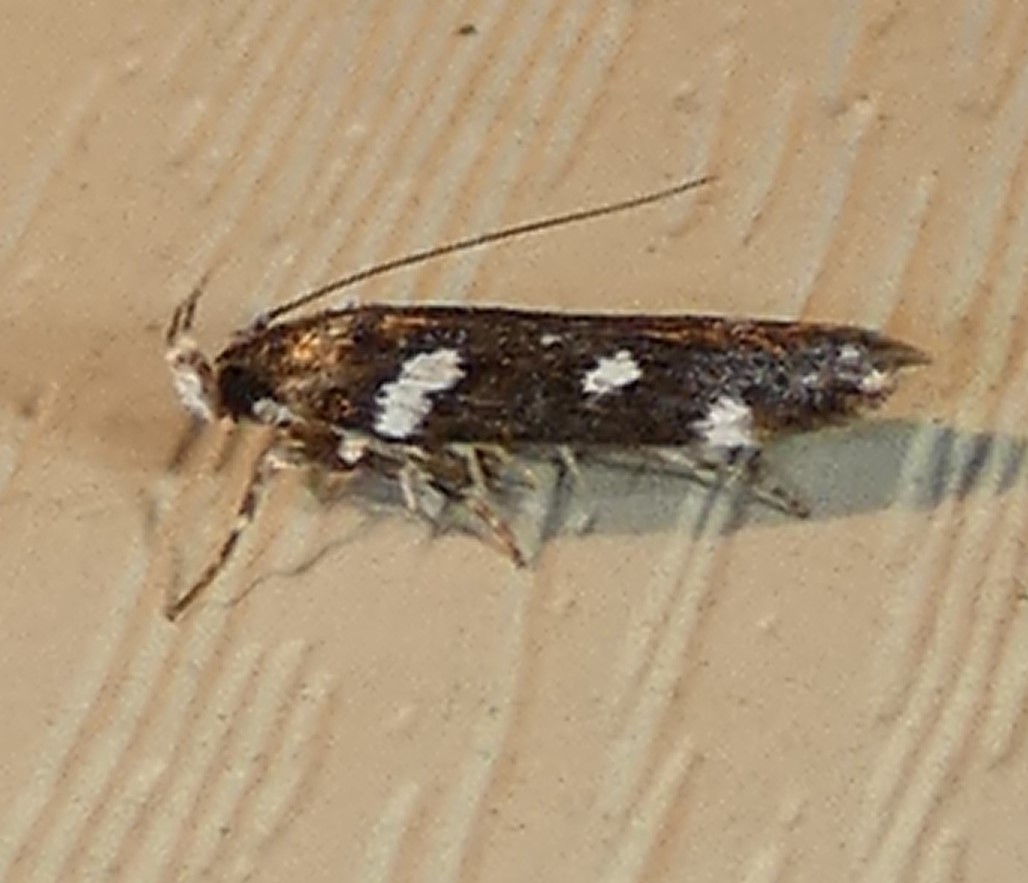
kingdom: Animalia
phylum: Arthropoda
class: Insecta
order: Lepidoptera
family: Gelechiidae
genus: Aroga
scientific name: Aroga compositella
